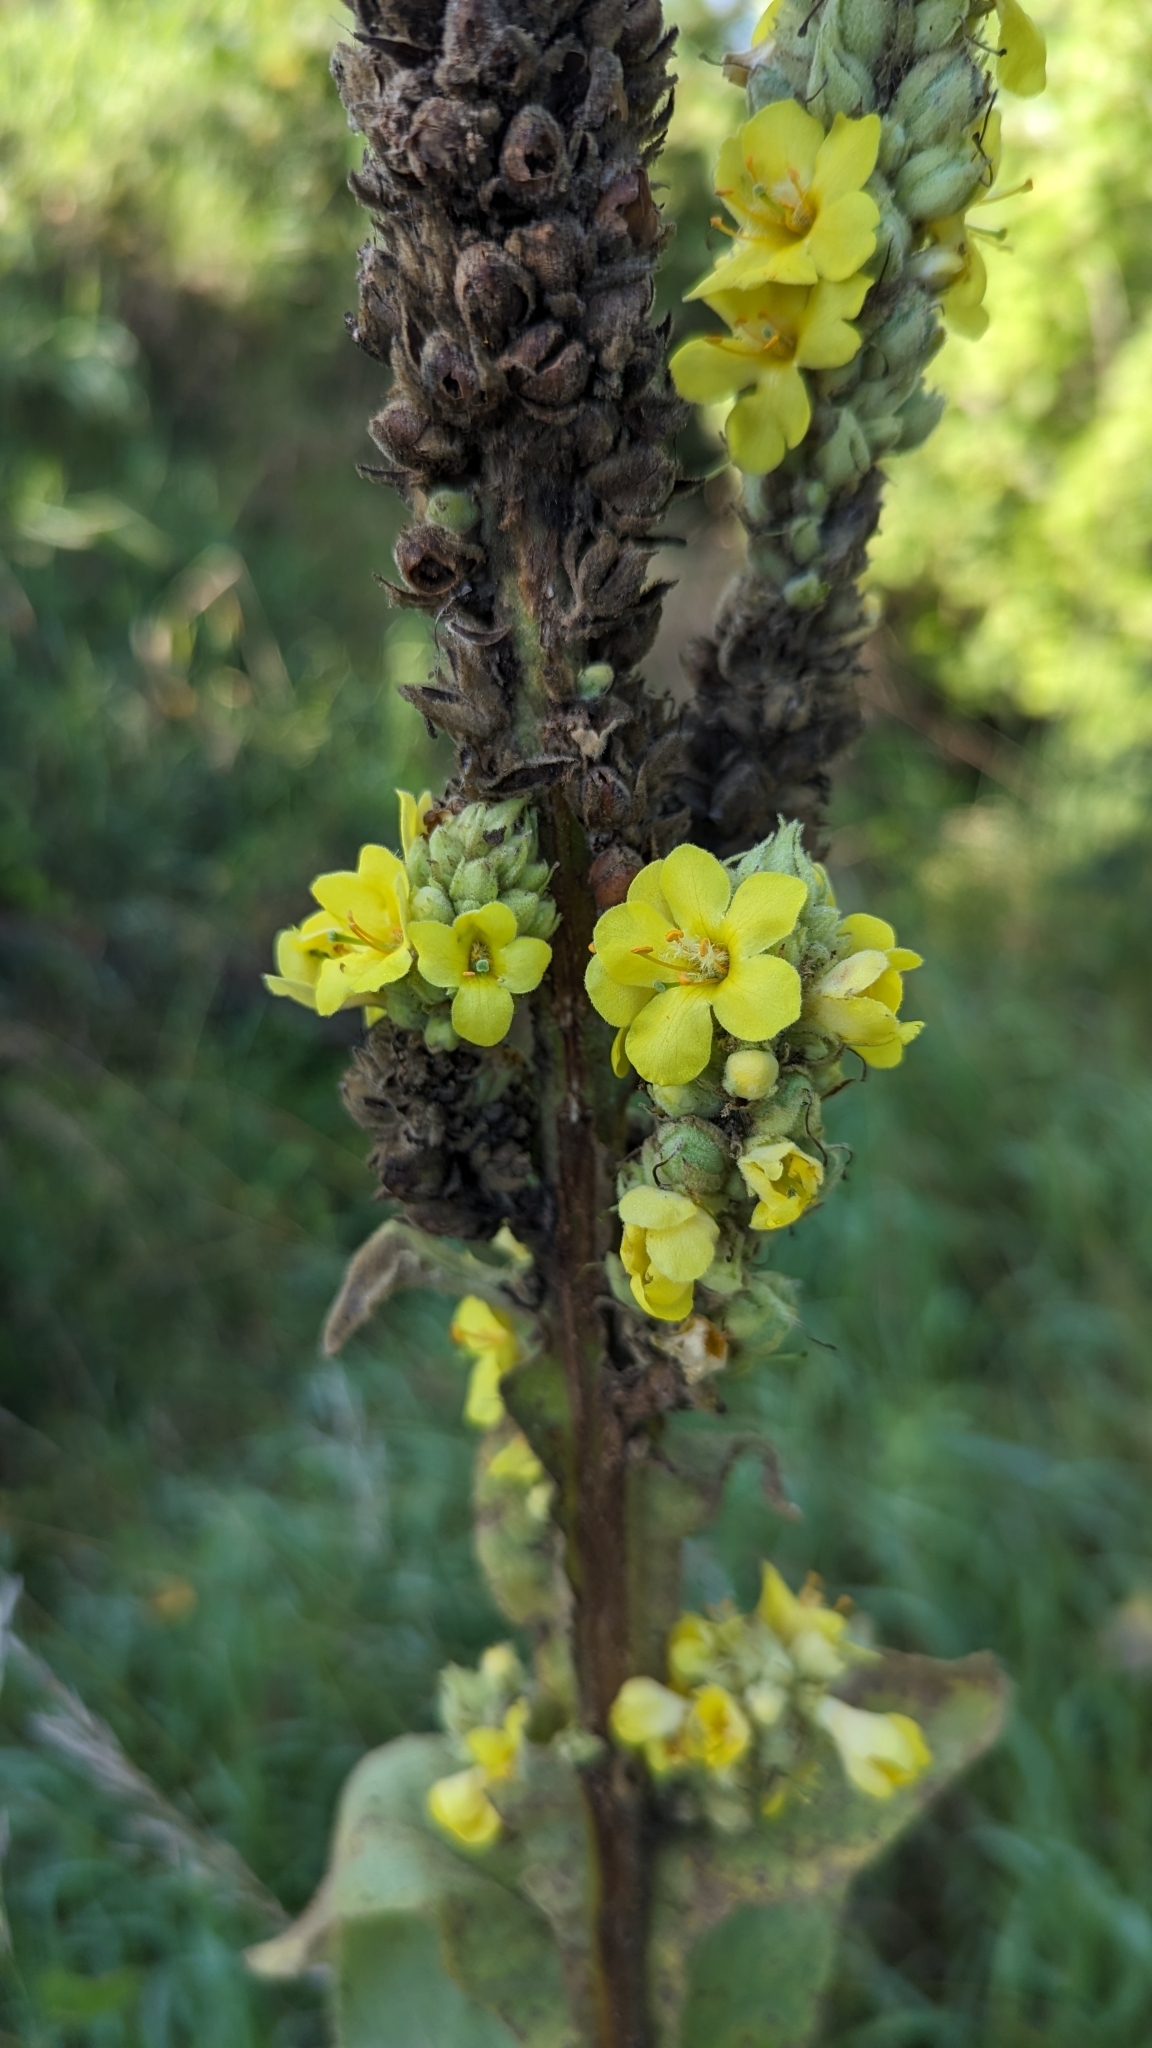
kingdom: Plantae
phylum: Tracheophyta
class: Magnoliopsida
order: Lamiales
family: Scrophulariaceae
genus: Verbascum
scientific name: Verbascum thapsus
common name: Common mullein
